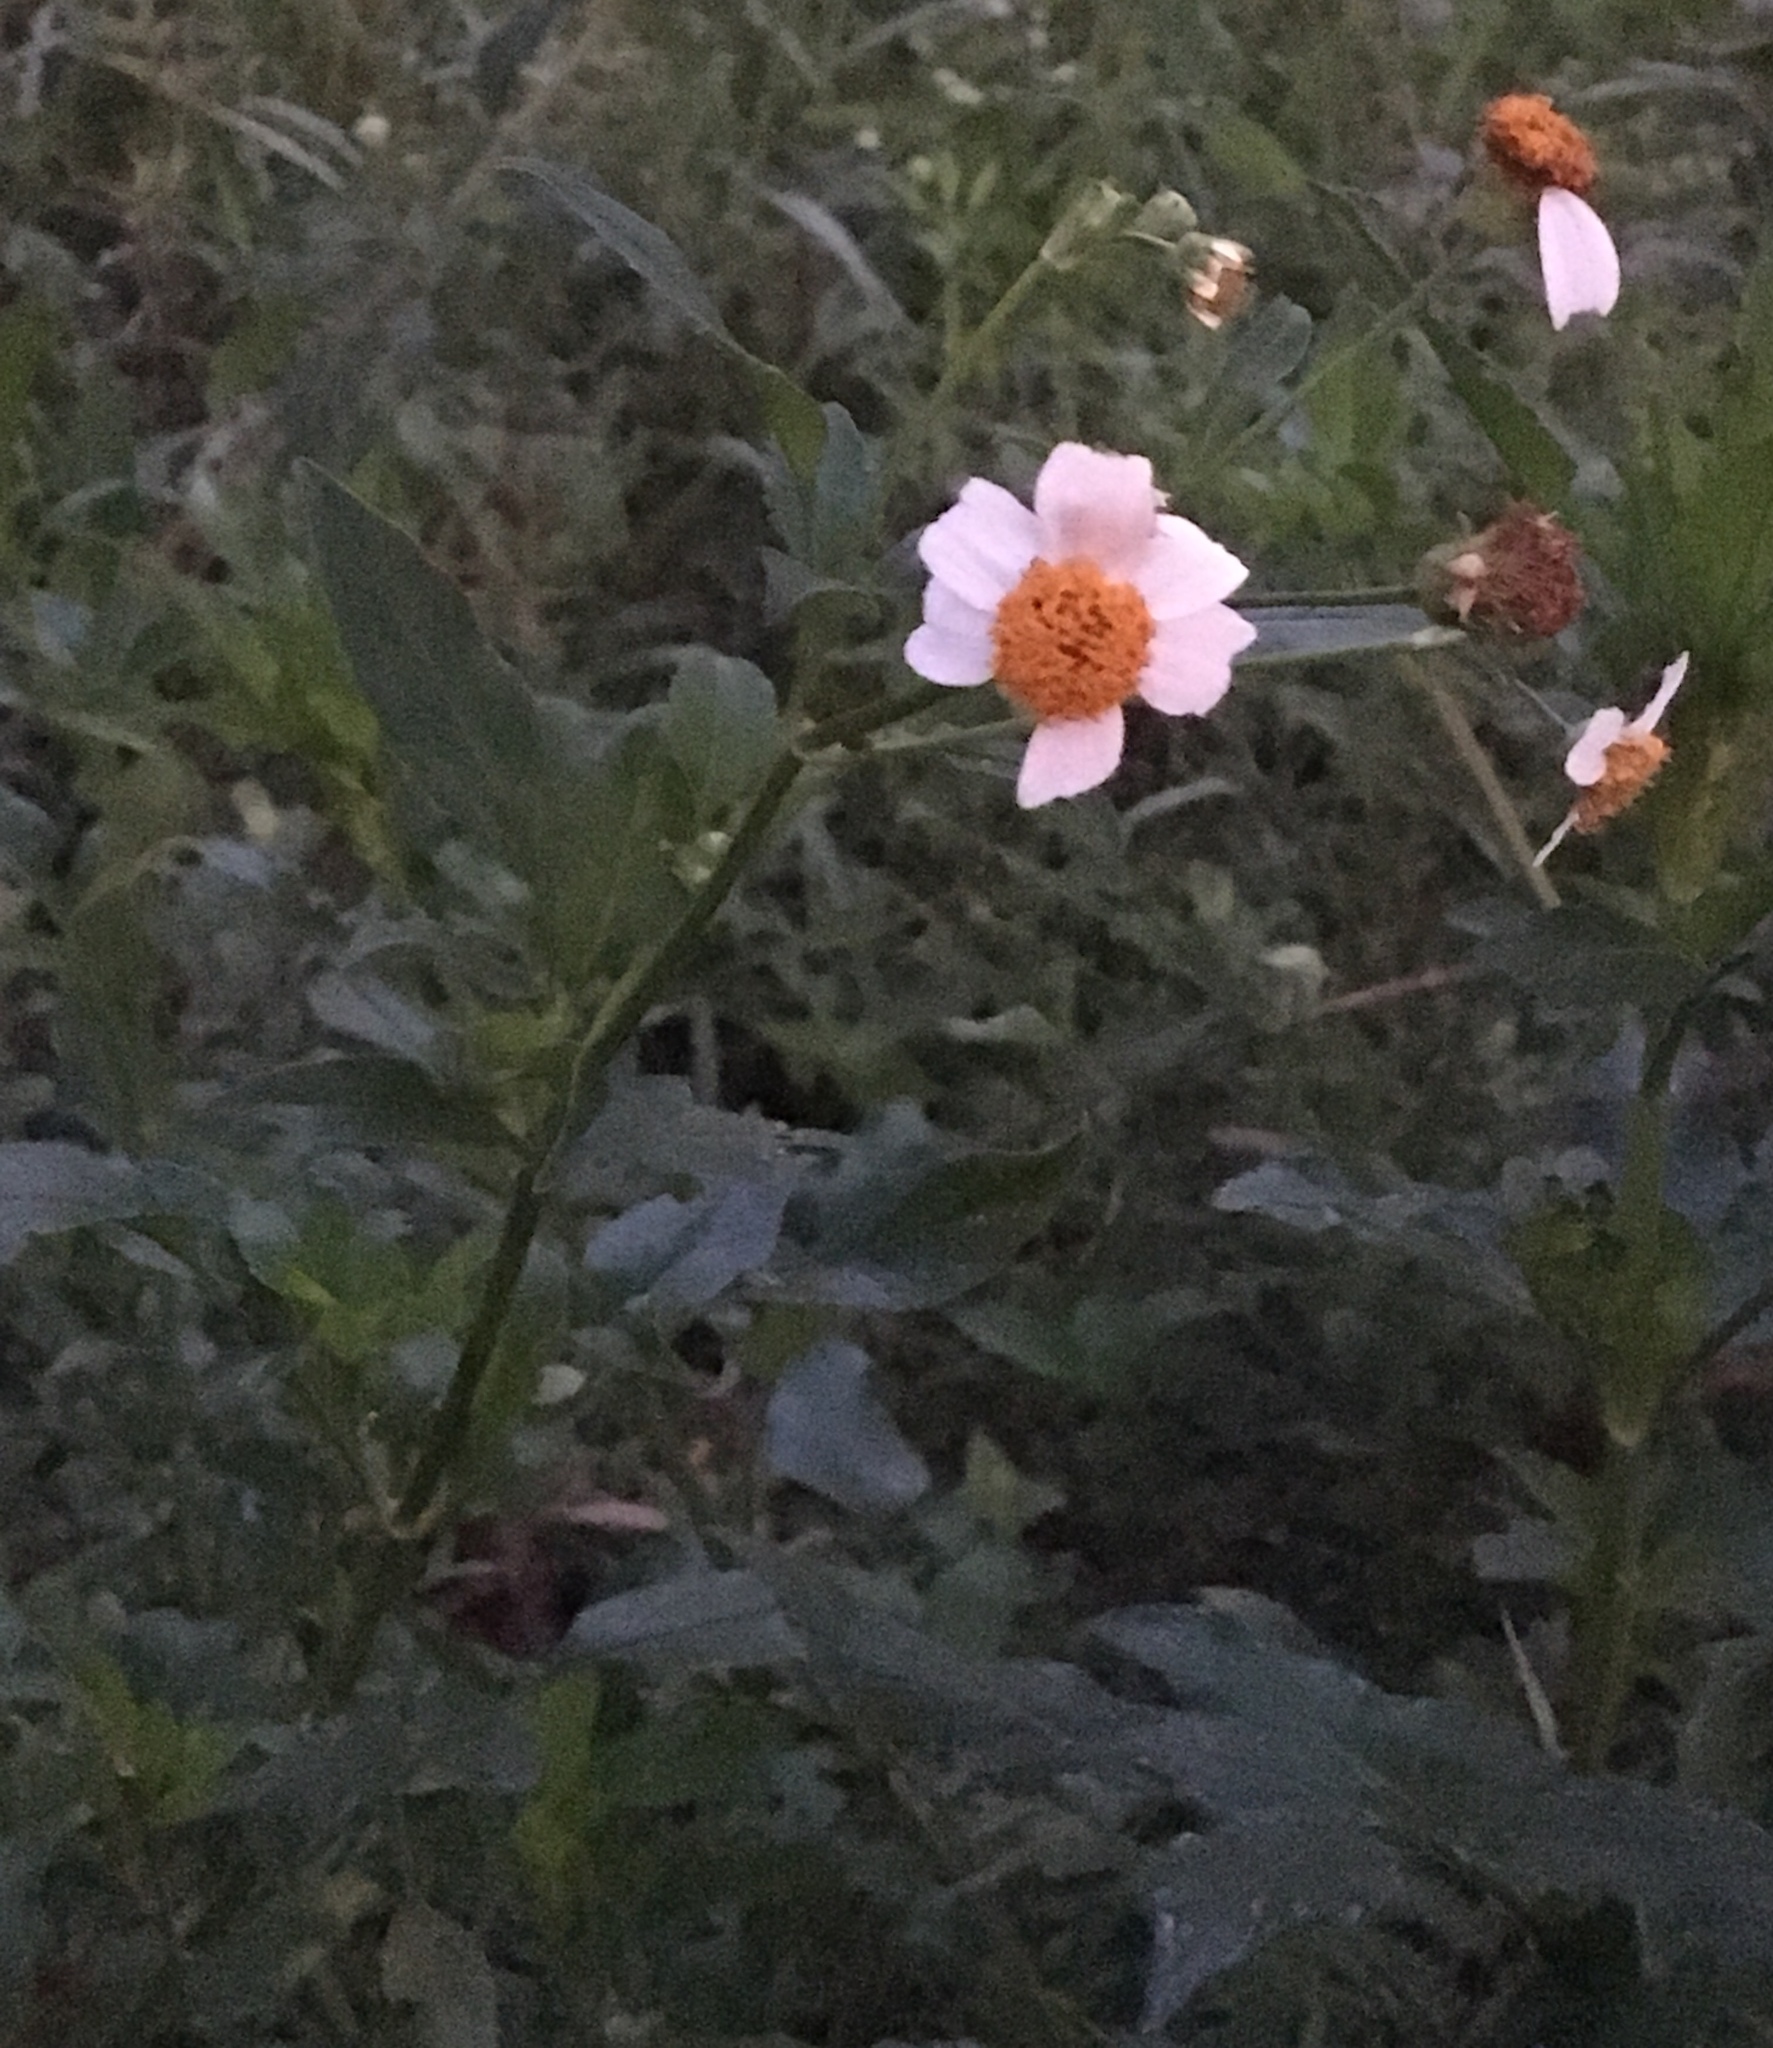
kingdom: Plantae
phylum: Tracheophyta
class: Magnoliopsida
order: Asterales
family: Asteraceae
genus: Bidens
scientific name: Bidens alba
